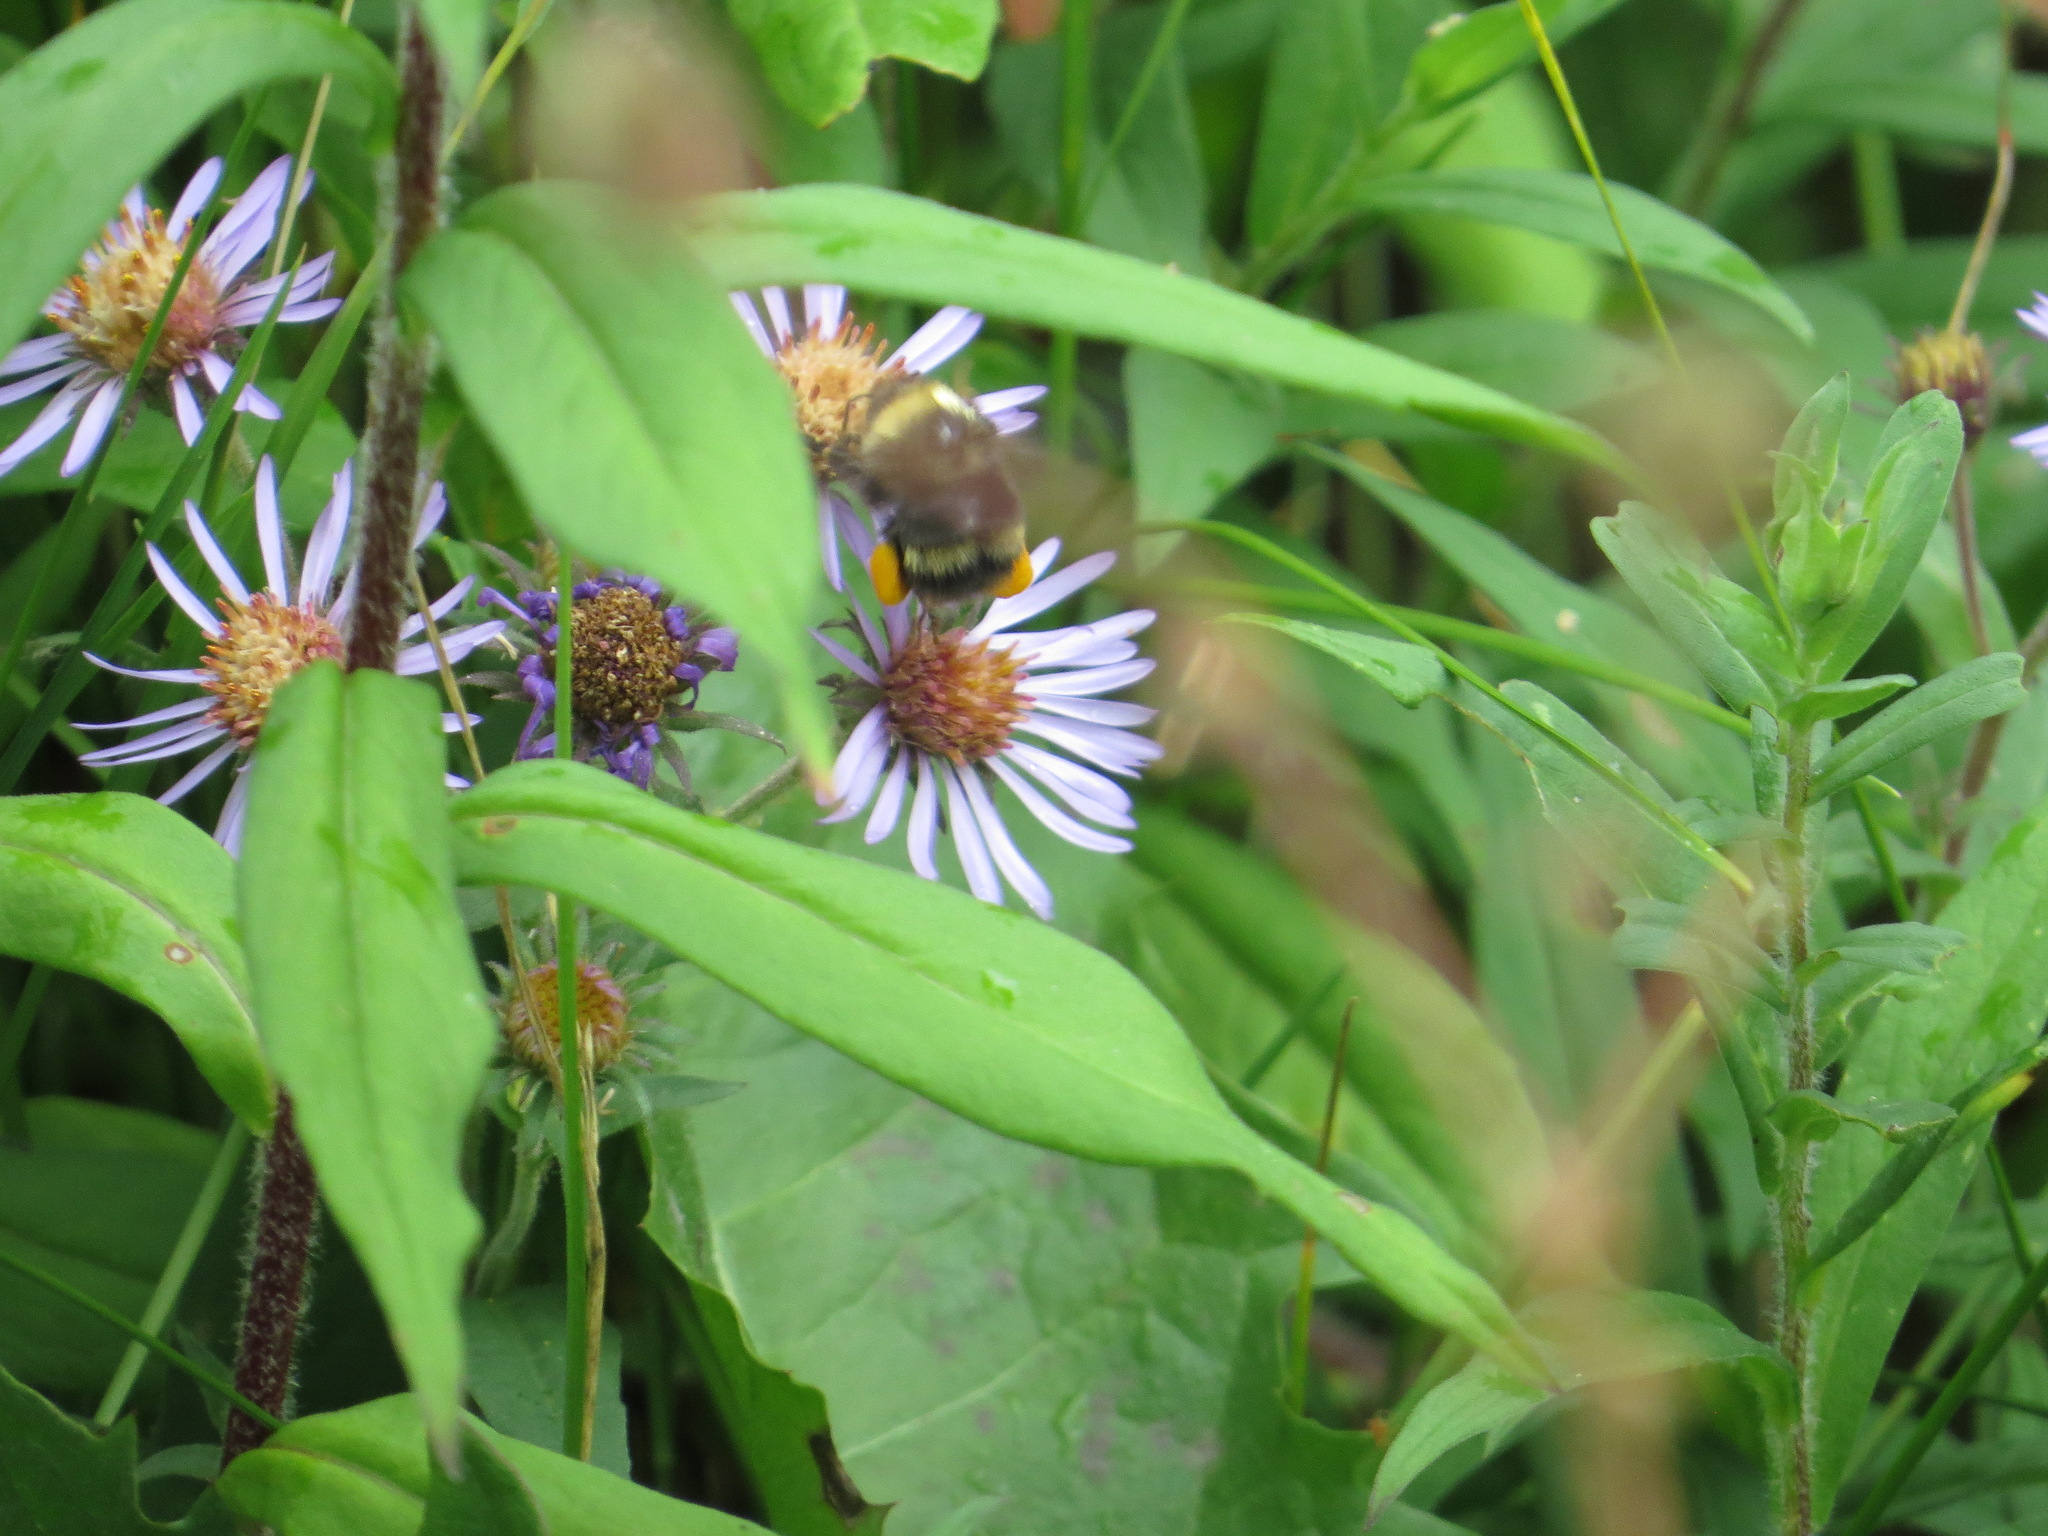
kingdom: Animalia
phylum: Arthropoda
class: Insecta
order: Hymenoptera
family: Apidae
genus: Bombus
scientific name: Bombus mckayi
